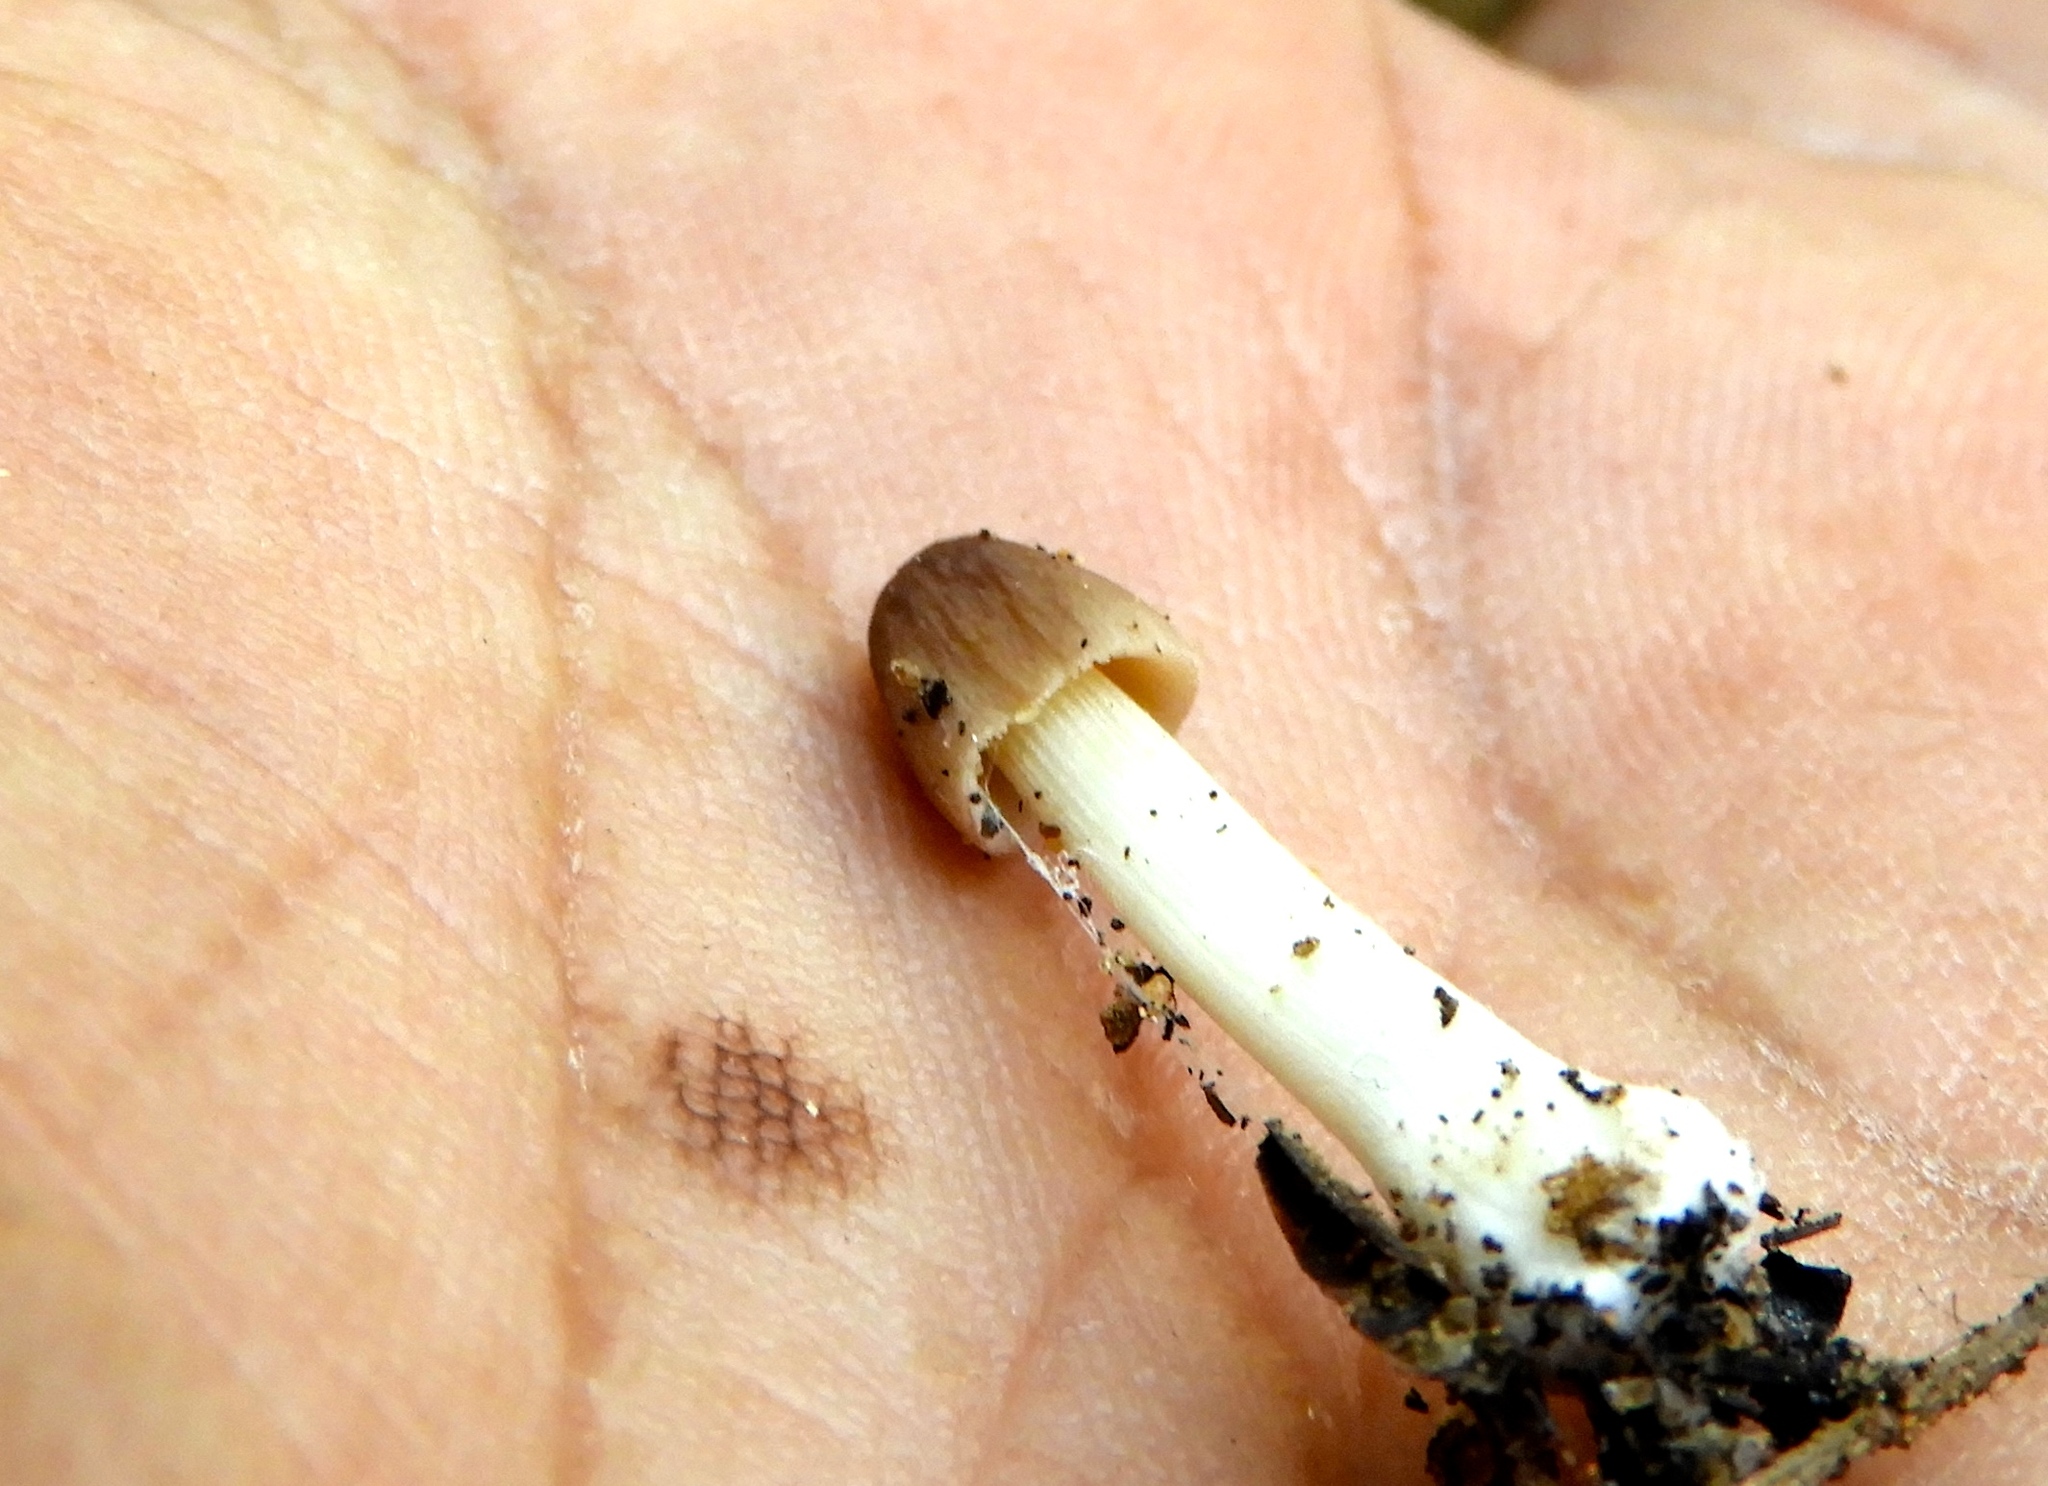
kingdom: Fungi
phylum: Basidiomycota
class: Agaricomycetes
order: Agaricales
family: Bolbitiaceae
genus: Conocybe
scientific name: Conocybe
